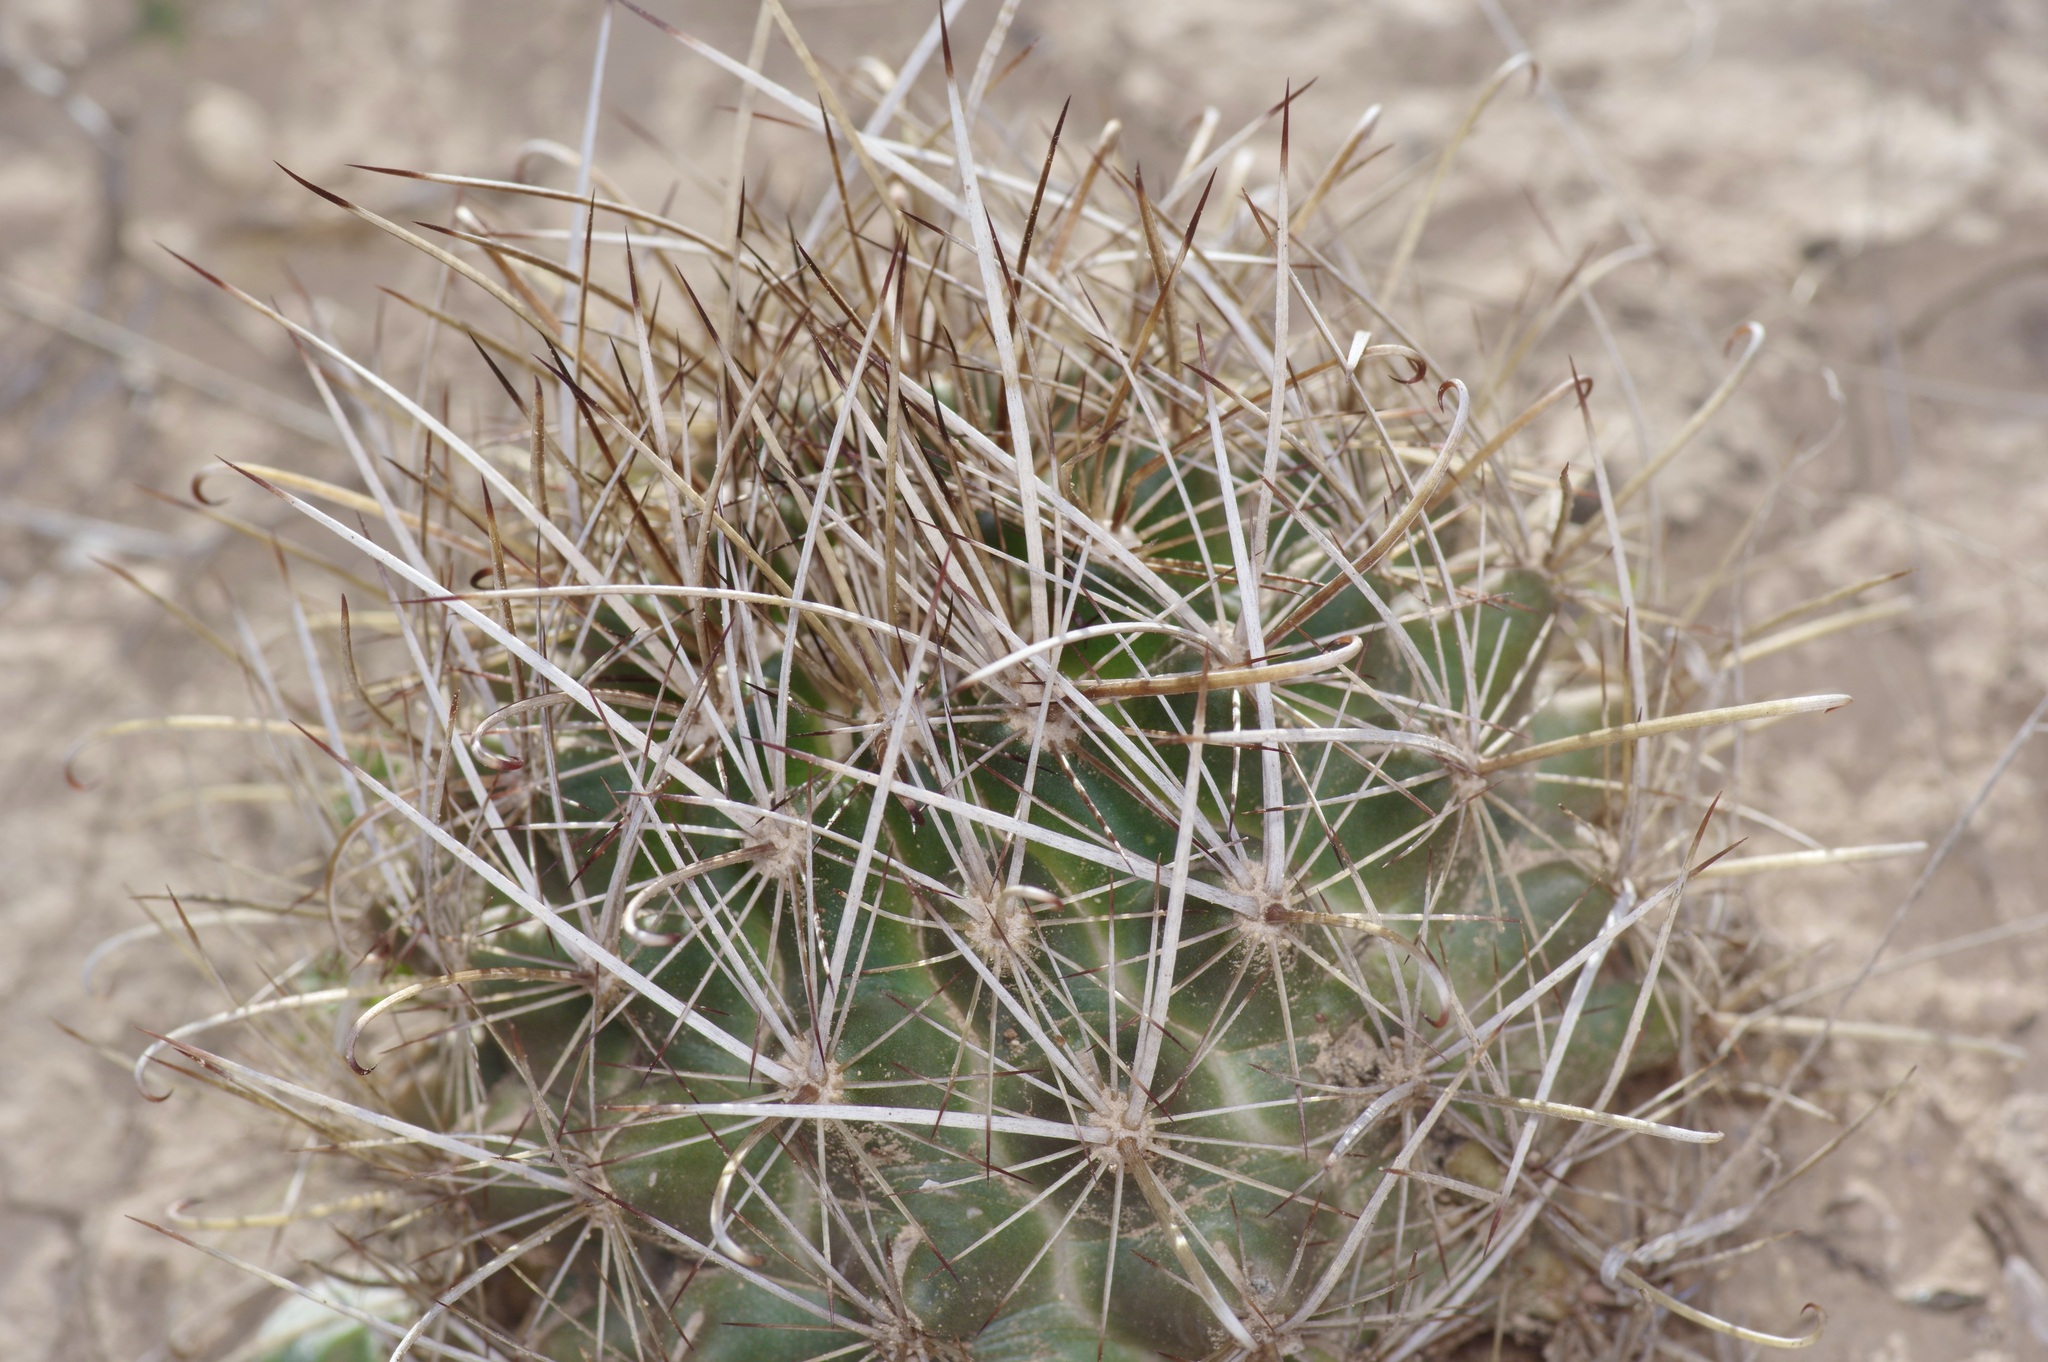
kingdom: Plantae
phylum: Tracheophyta
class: Magnoliopsida
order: Caryophyllales
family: Cactaceae
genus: Sclerocactus
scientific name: Sclerocactus brevihamatus
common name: Engelmann's fishhook cactus
